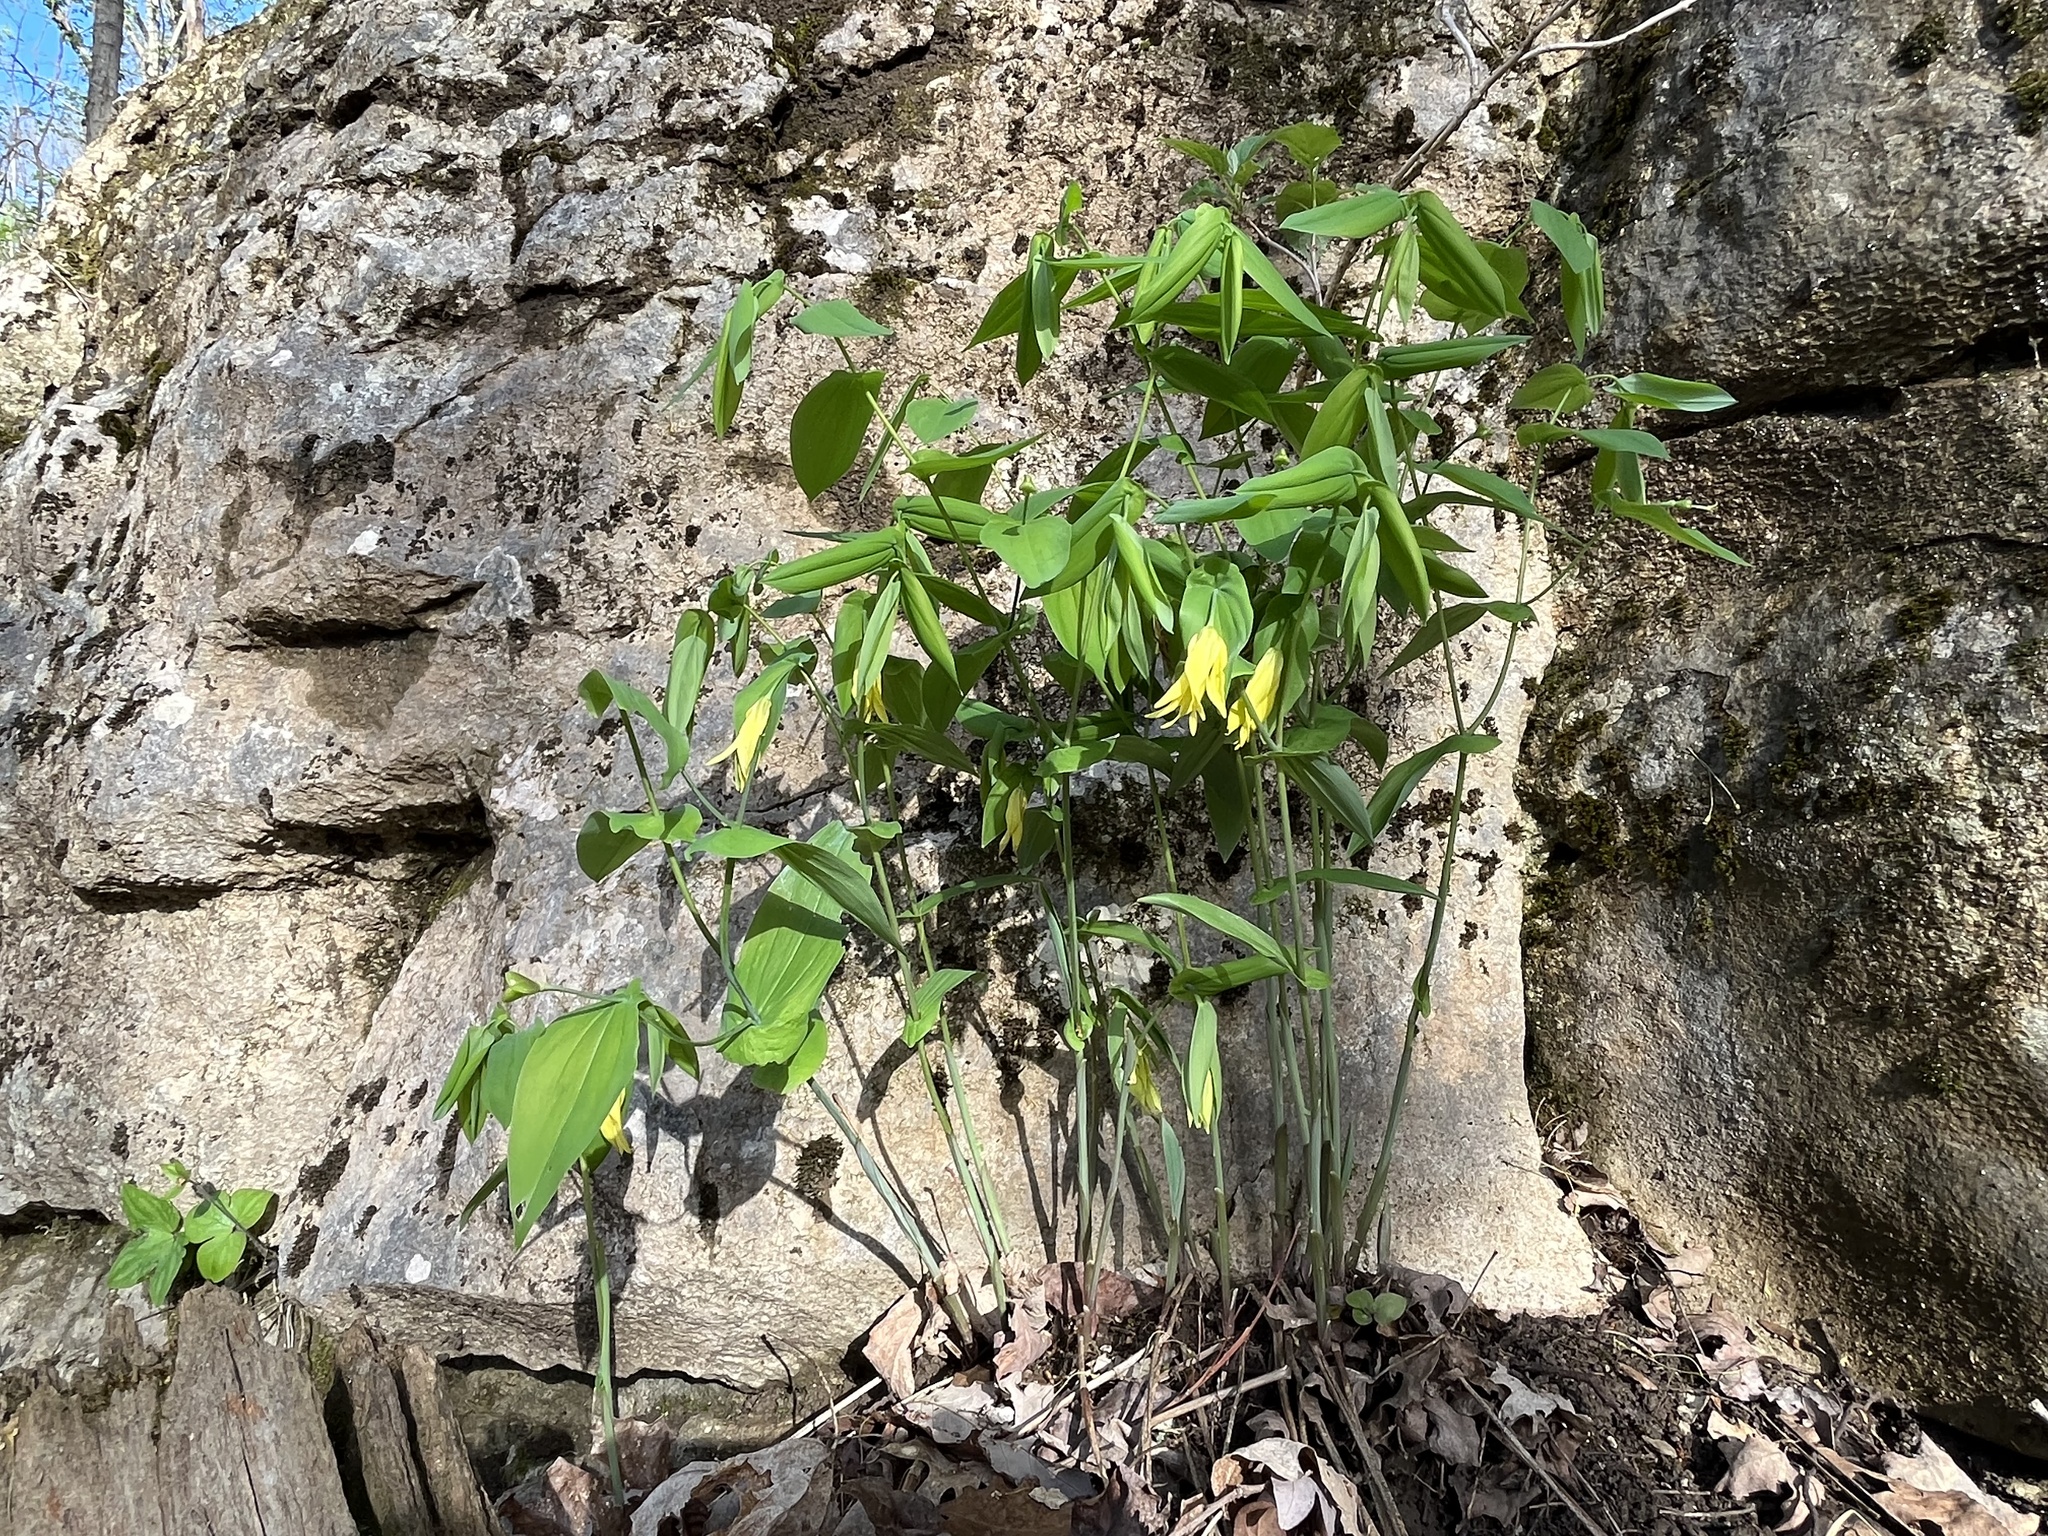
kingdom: Plantae
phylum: Tracheophyta
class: Liliopsida
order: Liliales
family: Colchicaceae
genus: Uvularia
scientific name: Uvularia grandiflora
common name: Bellwort
